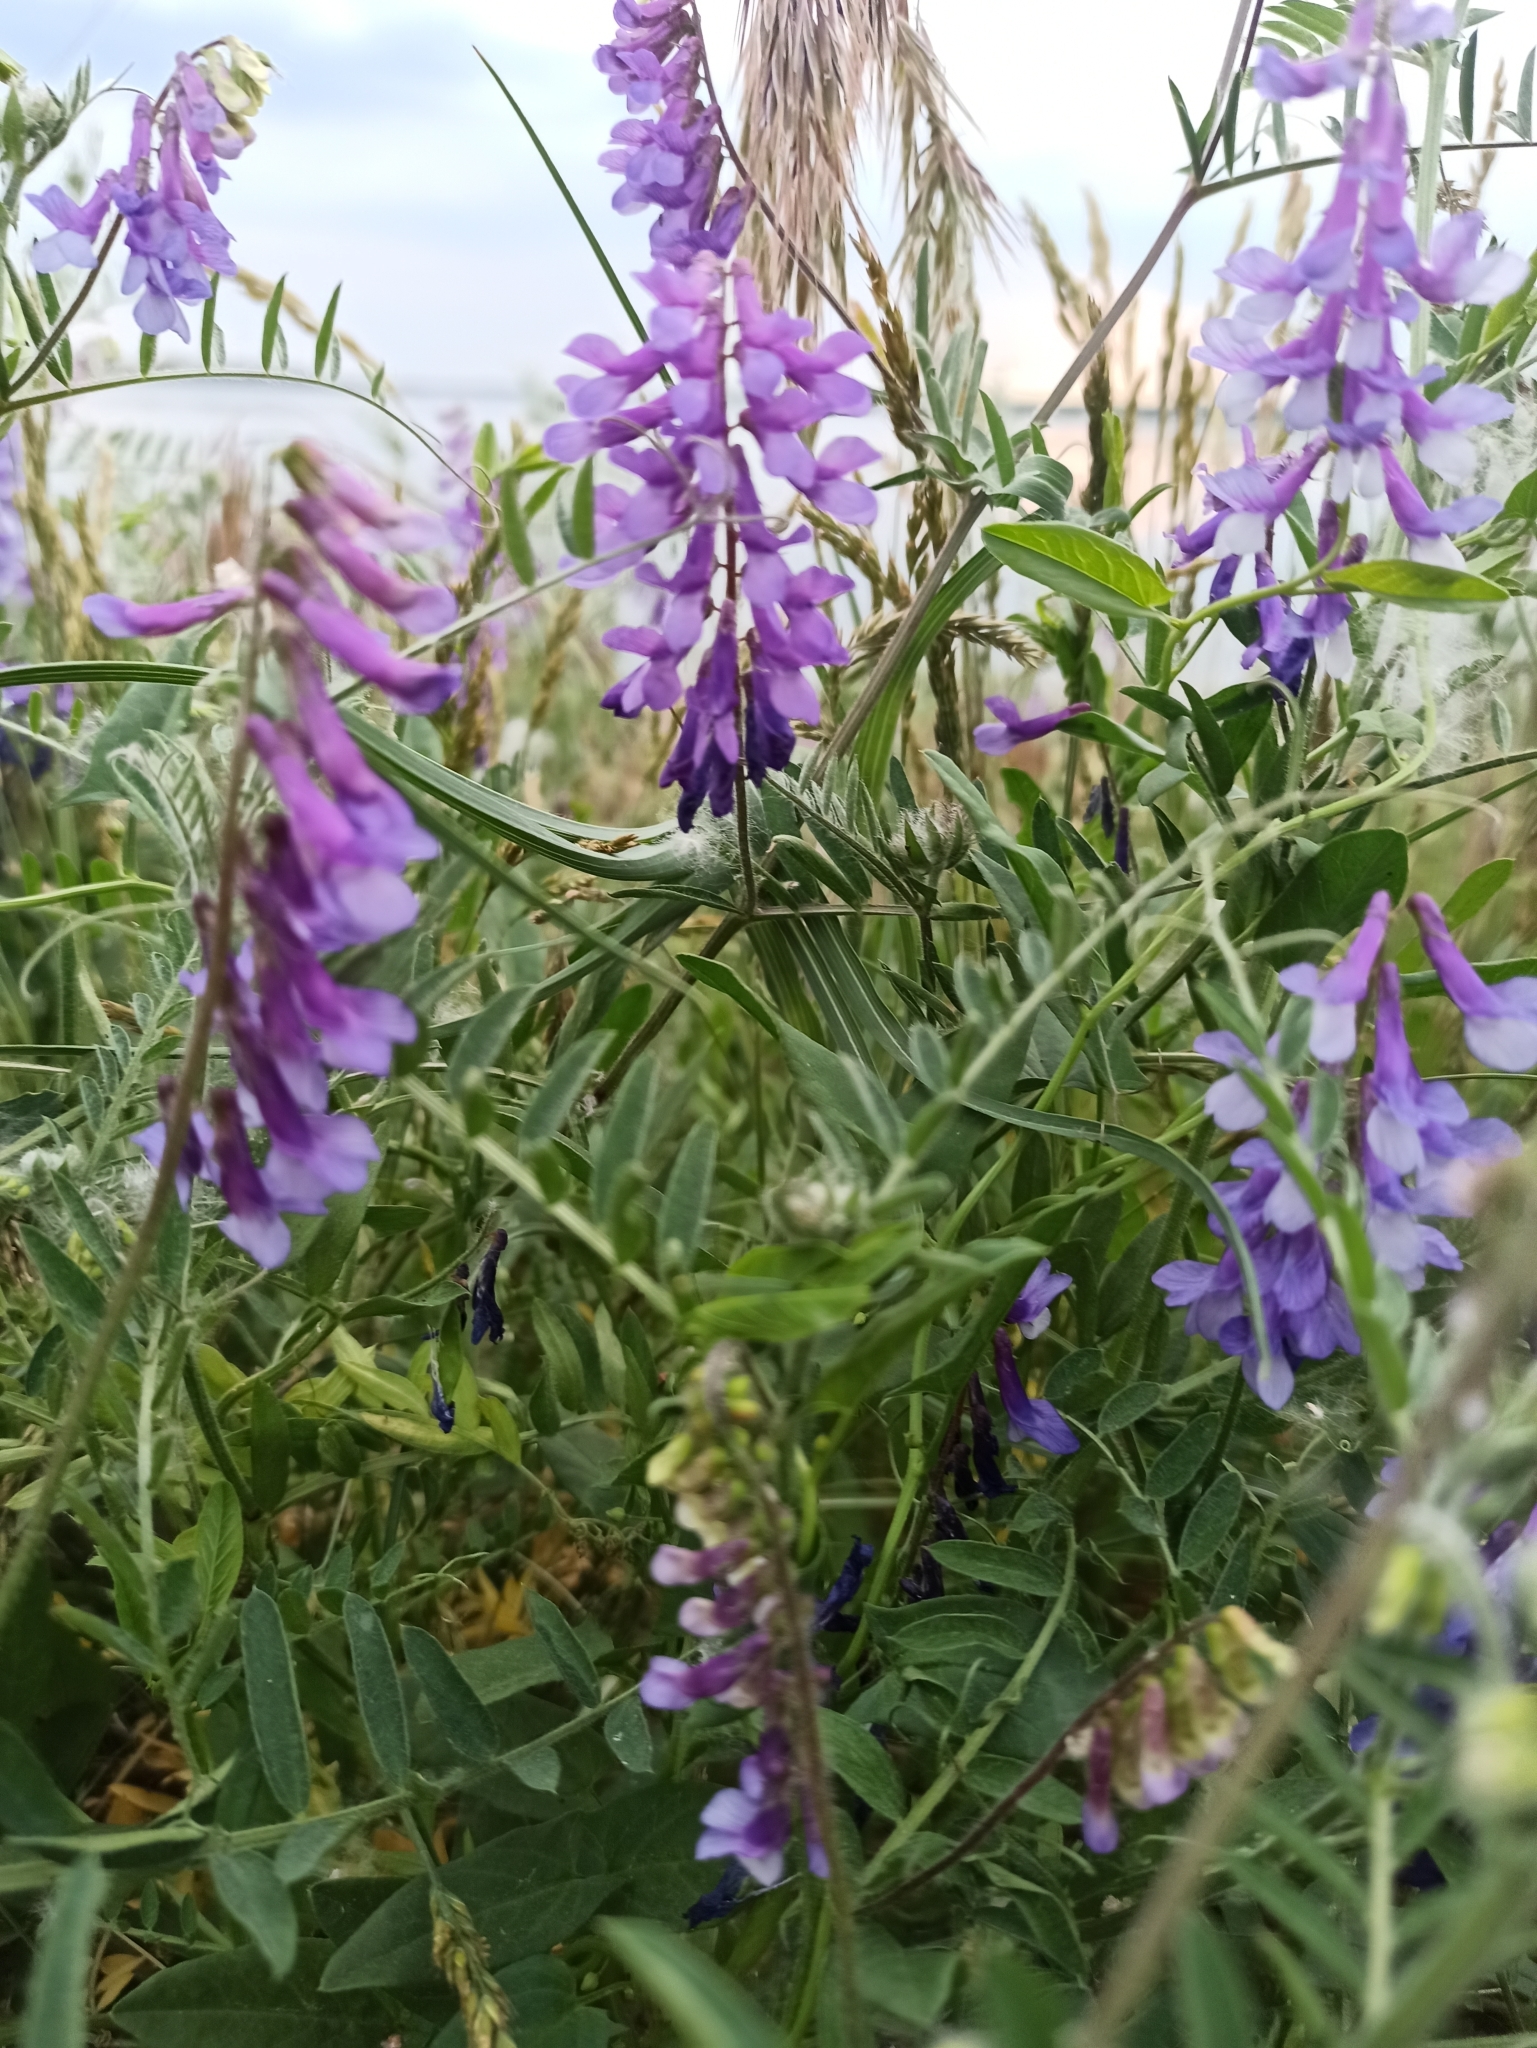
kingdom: Plantae
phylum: Tracheophyta
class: Magnoliopsida
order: Fabales
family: Fabaceae
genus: Vicia
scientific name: Vicia villosa
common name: Fodder vetch
